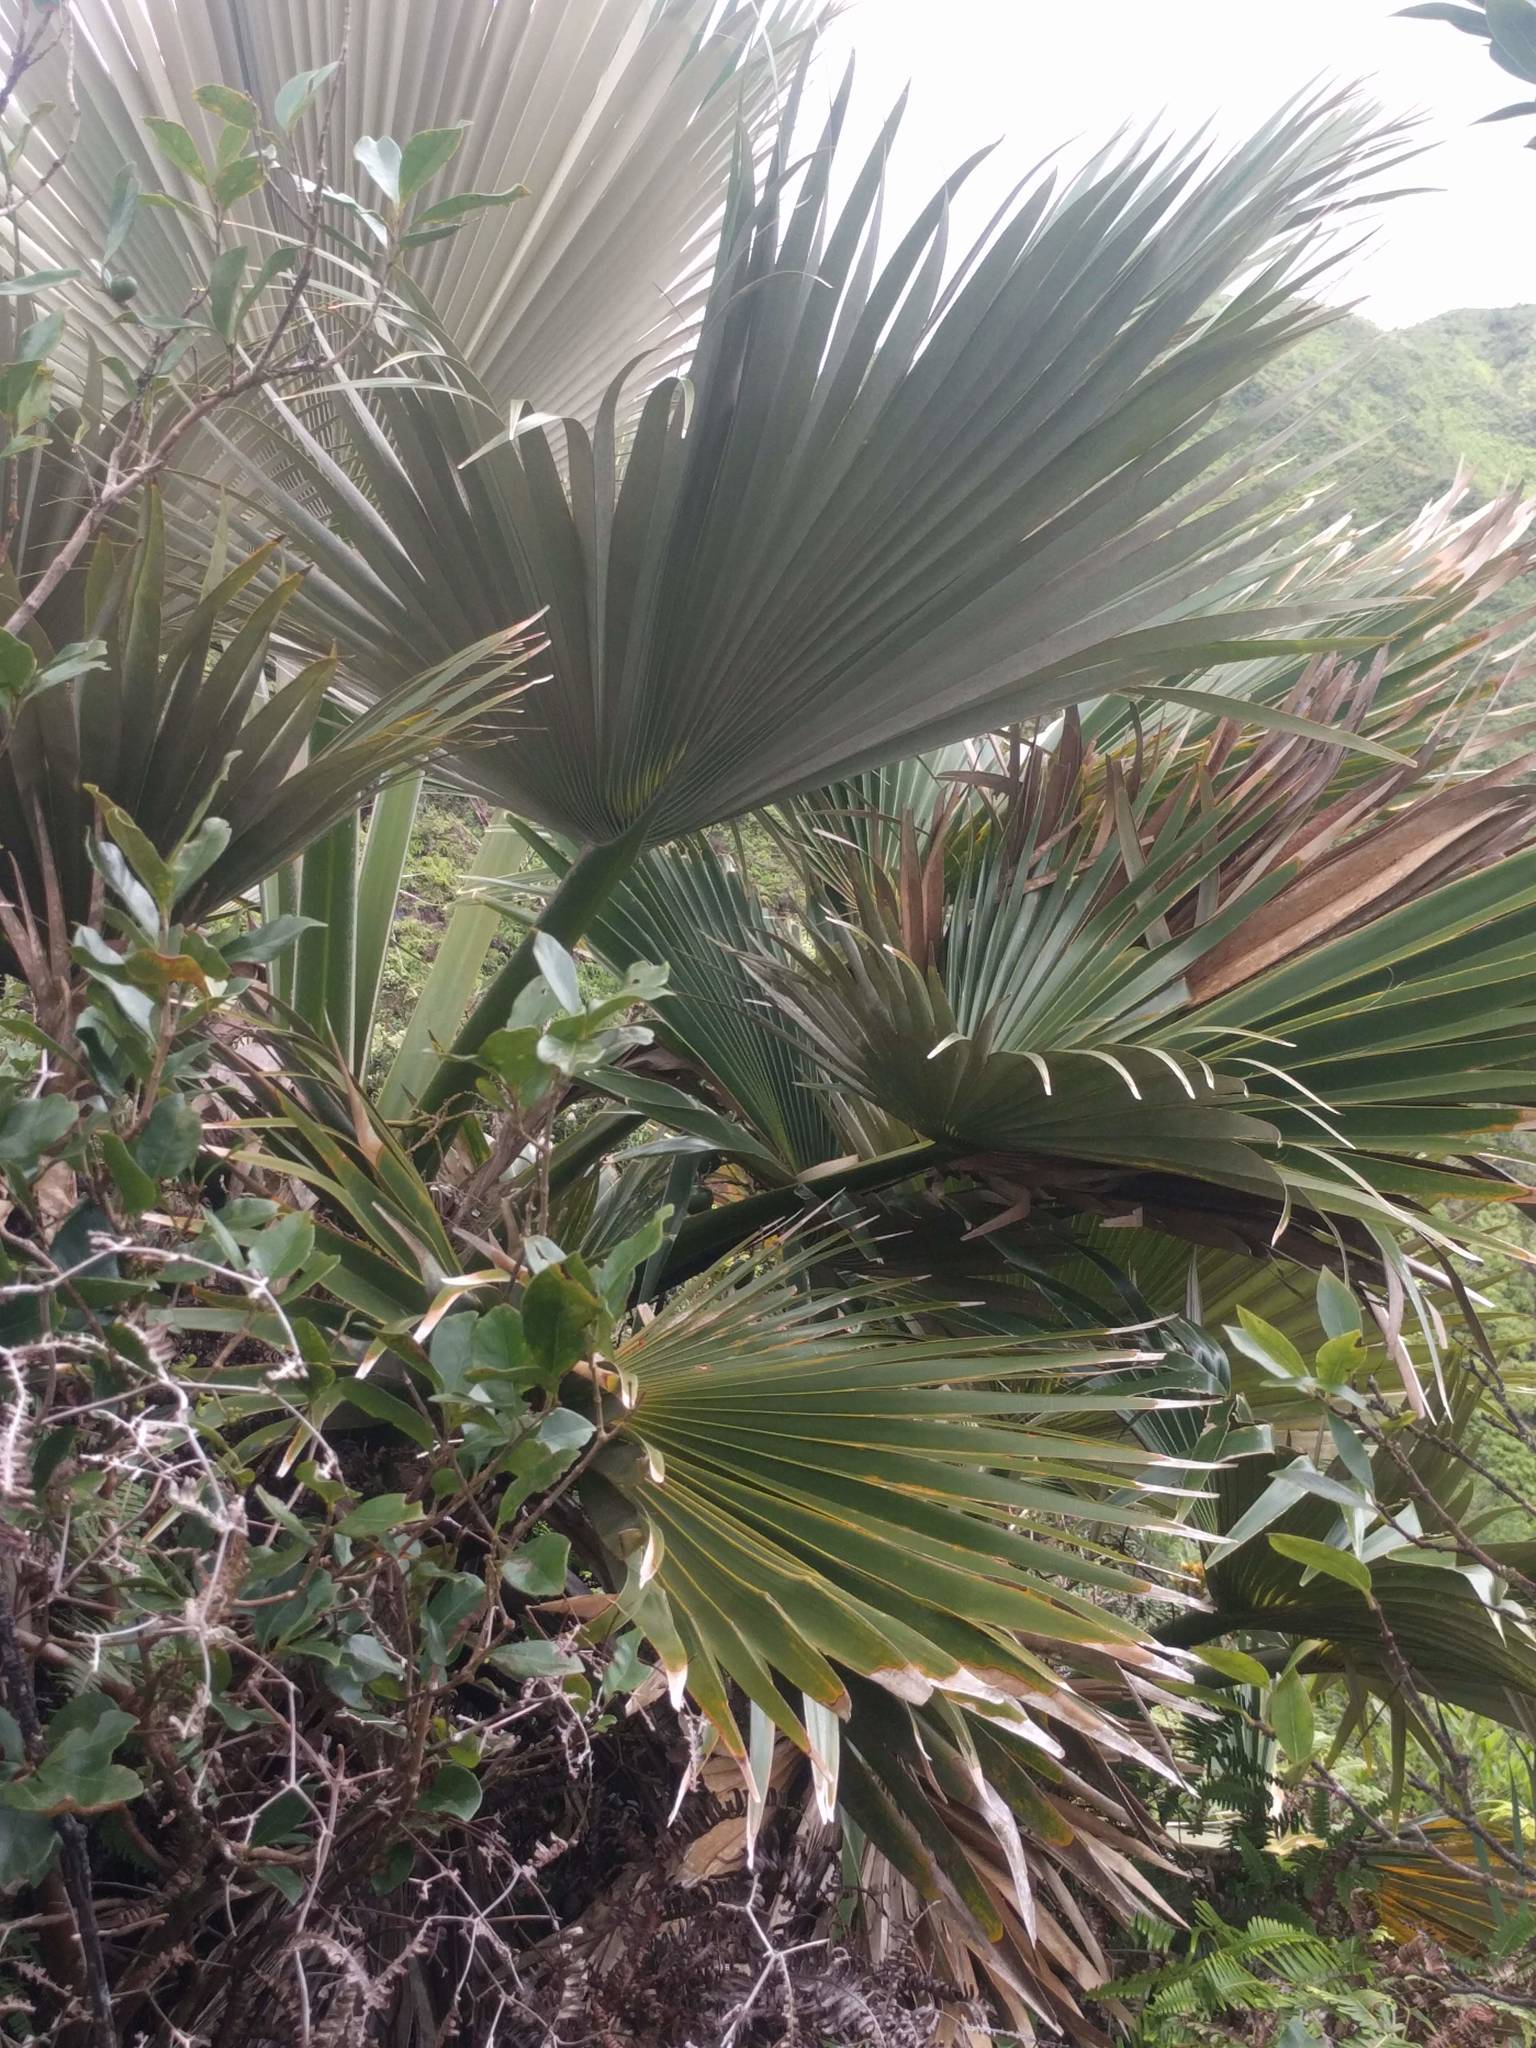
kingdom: Plantae
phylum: Tracheophyta
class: Liliopsida
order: Arecales
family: Arecaceae
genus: Pritchardia
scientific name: Pritchardia martii
